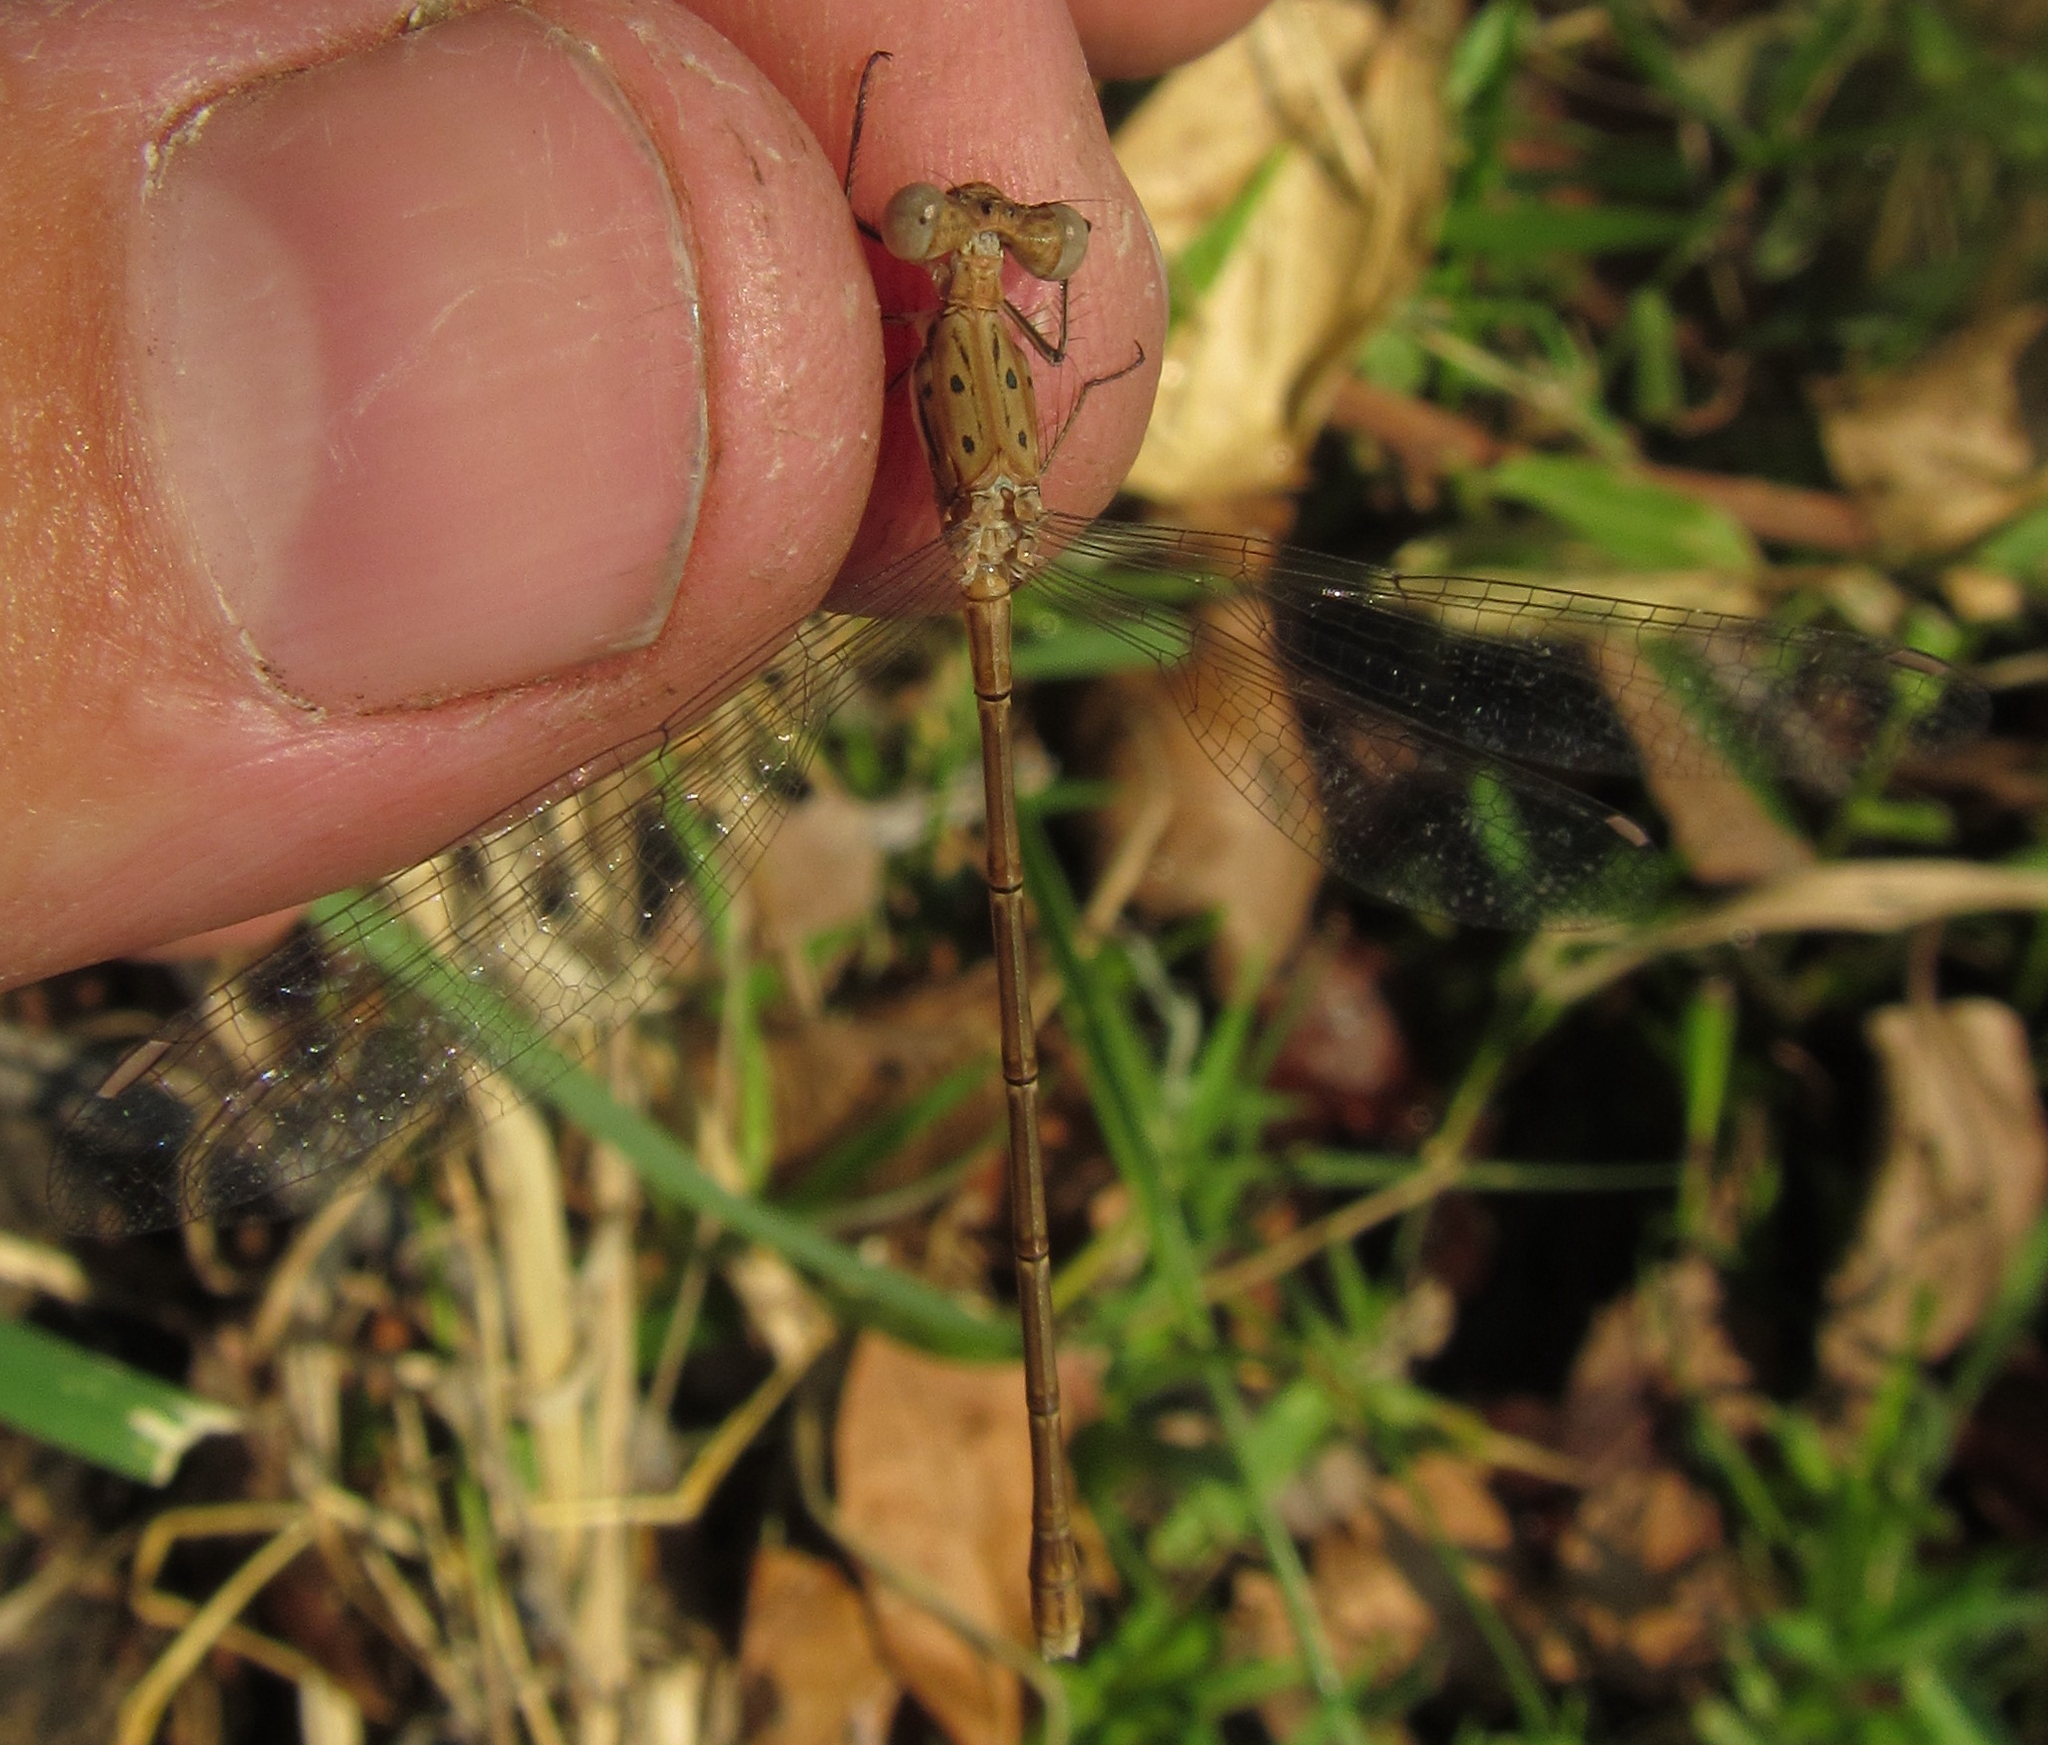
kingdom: Animalia
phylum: Arthropoda
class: Insecta
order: Odonata
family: Lestidae
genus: Lestes
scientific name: Lestes pinheyi
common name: Pinhey's spreadwing
